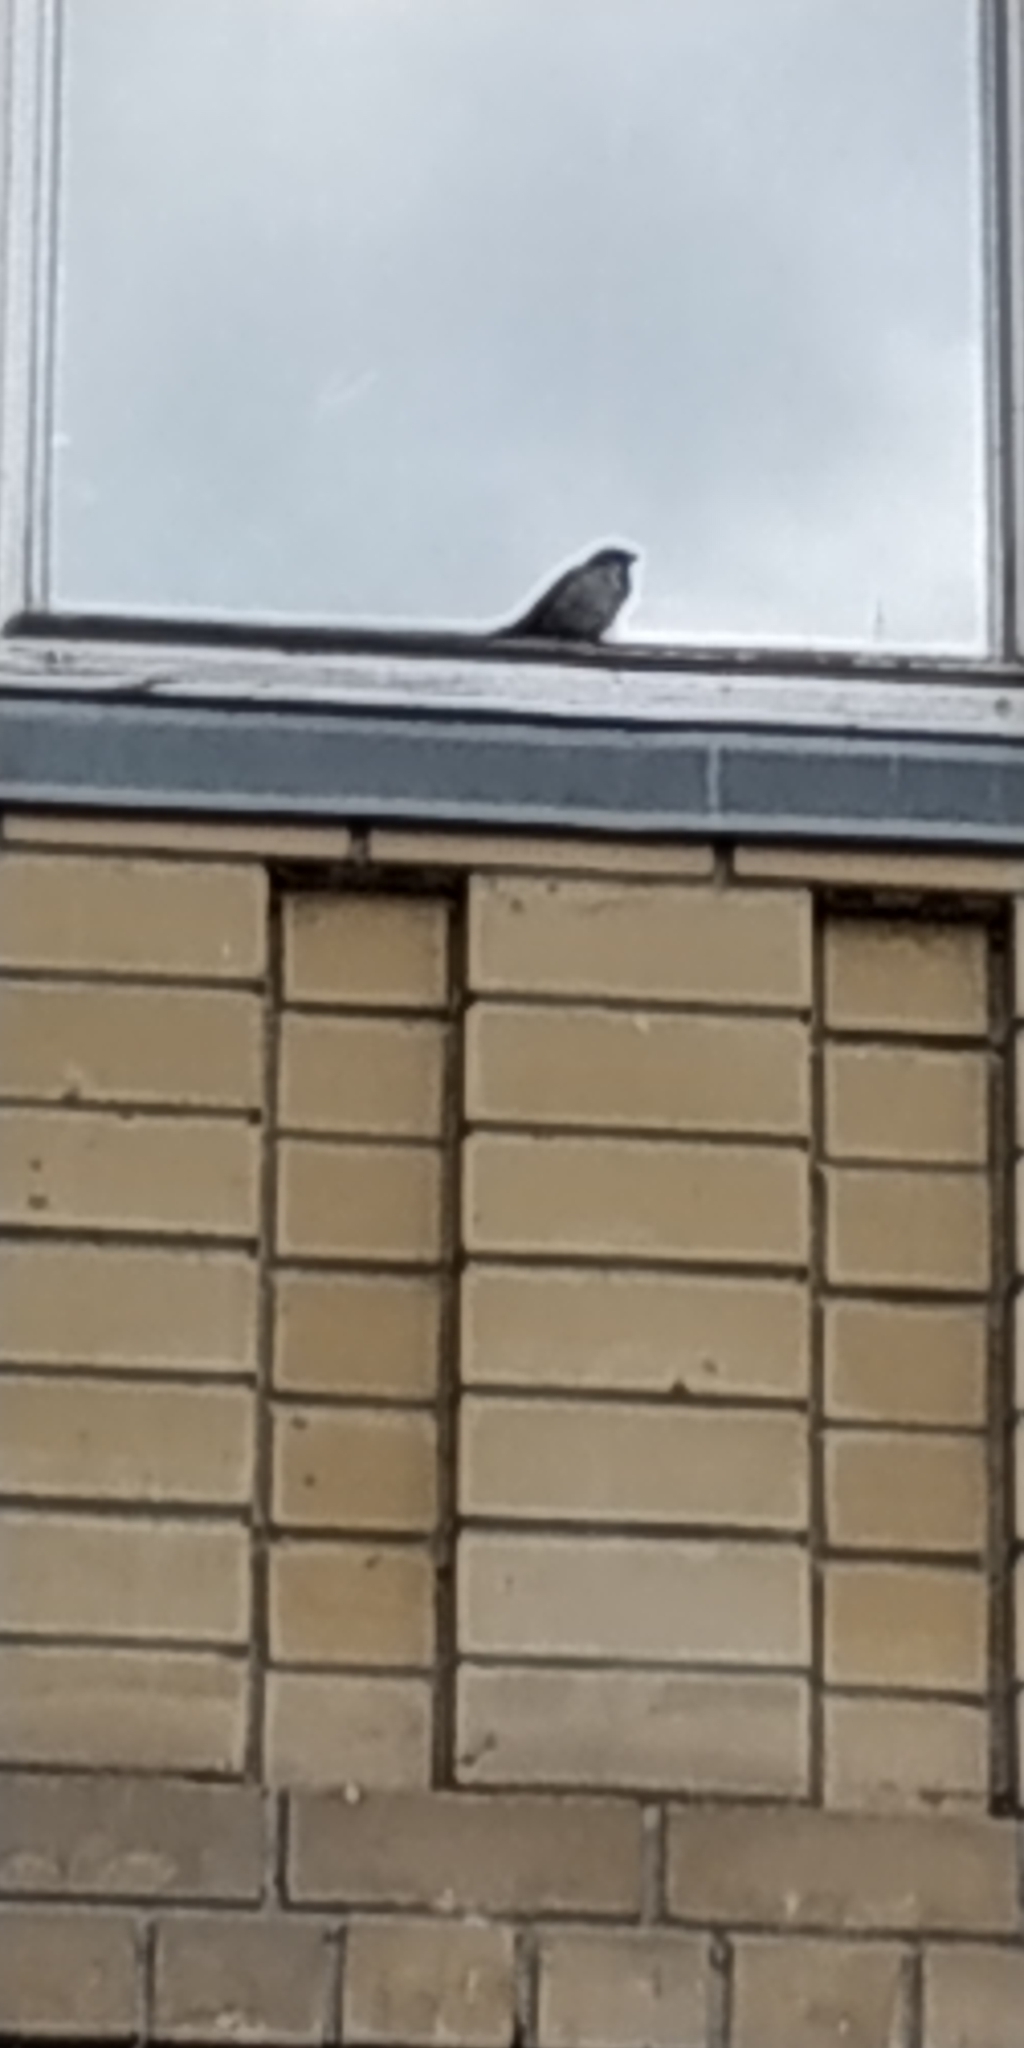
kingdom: Animalia
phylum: Chordata
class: Aves
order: Passeriformes
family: Passeridae
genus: Passer
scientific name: Passer domesticus
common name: House sparrow
